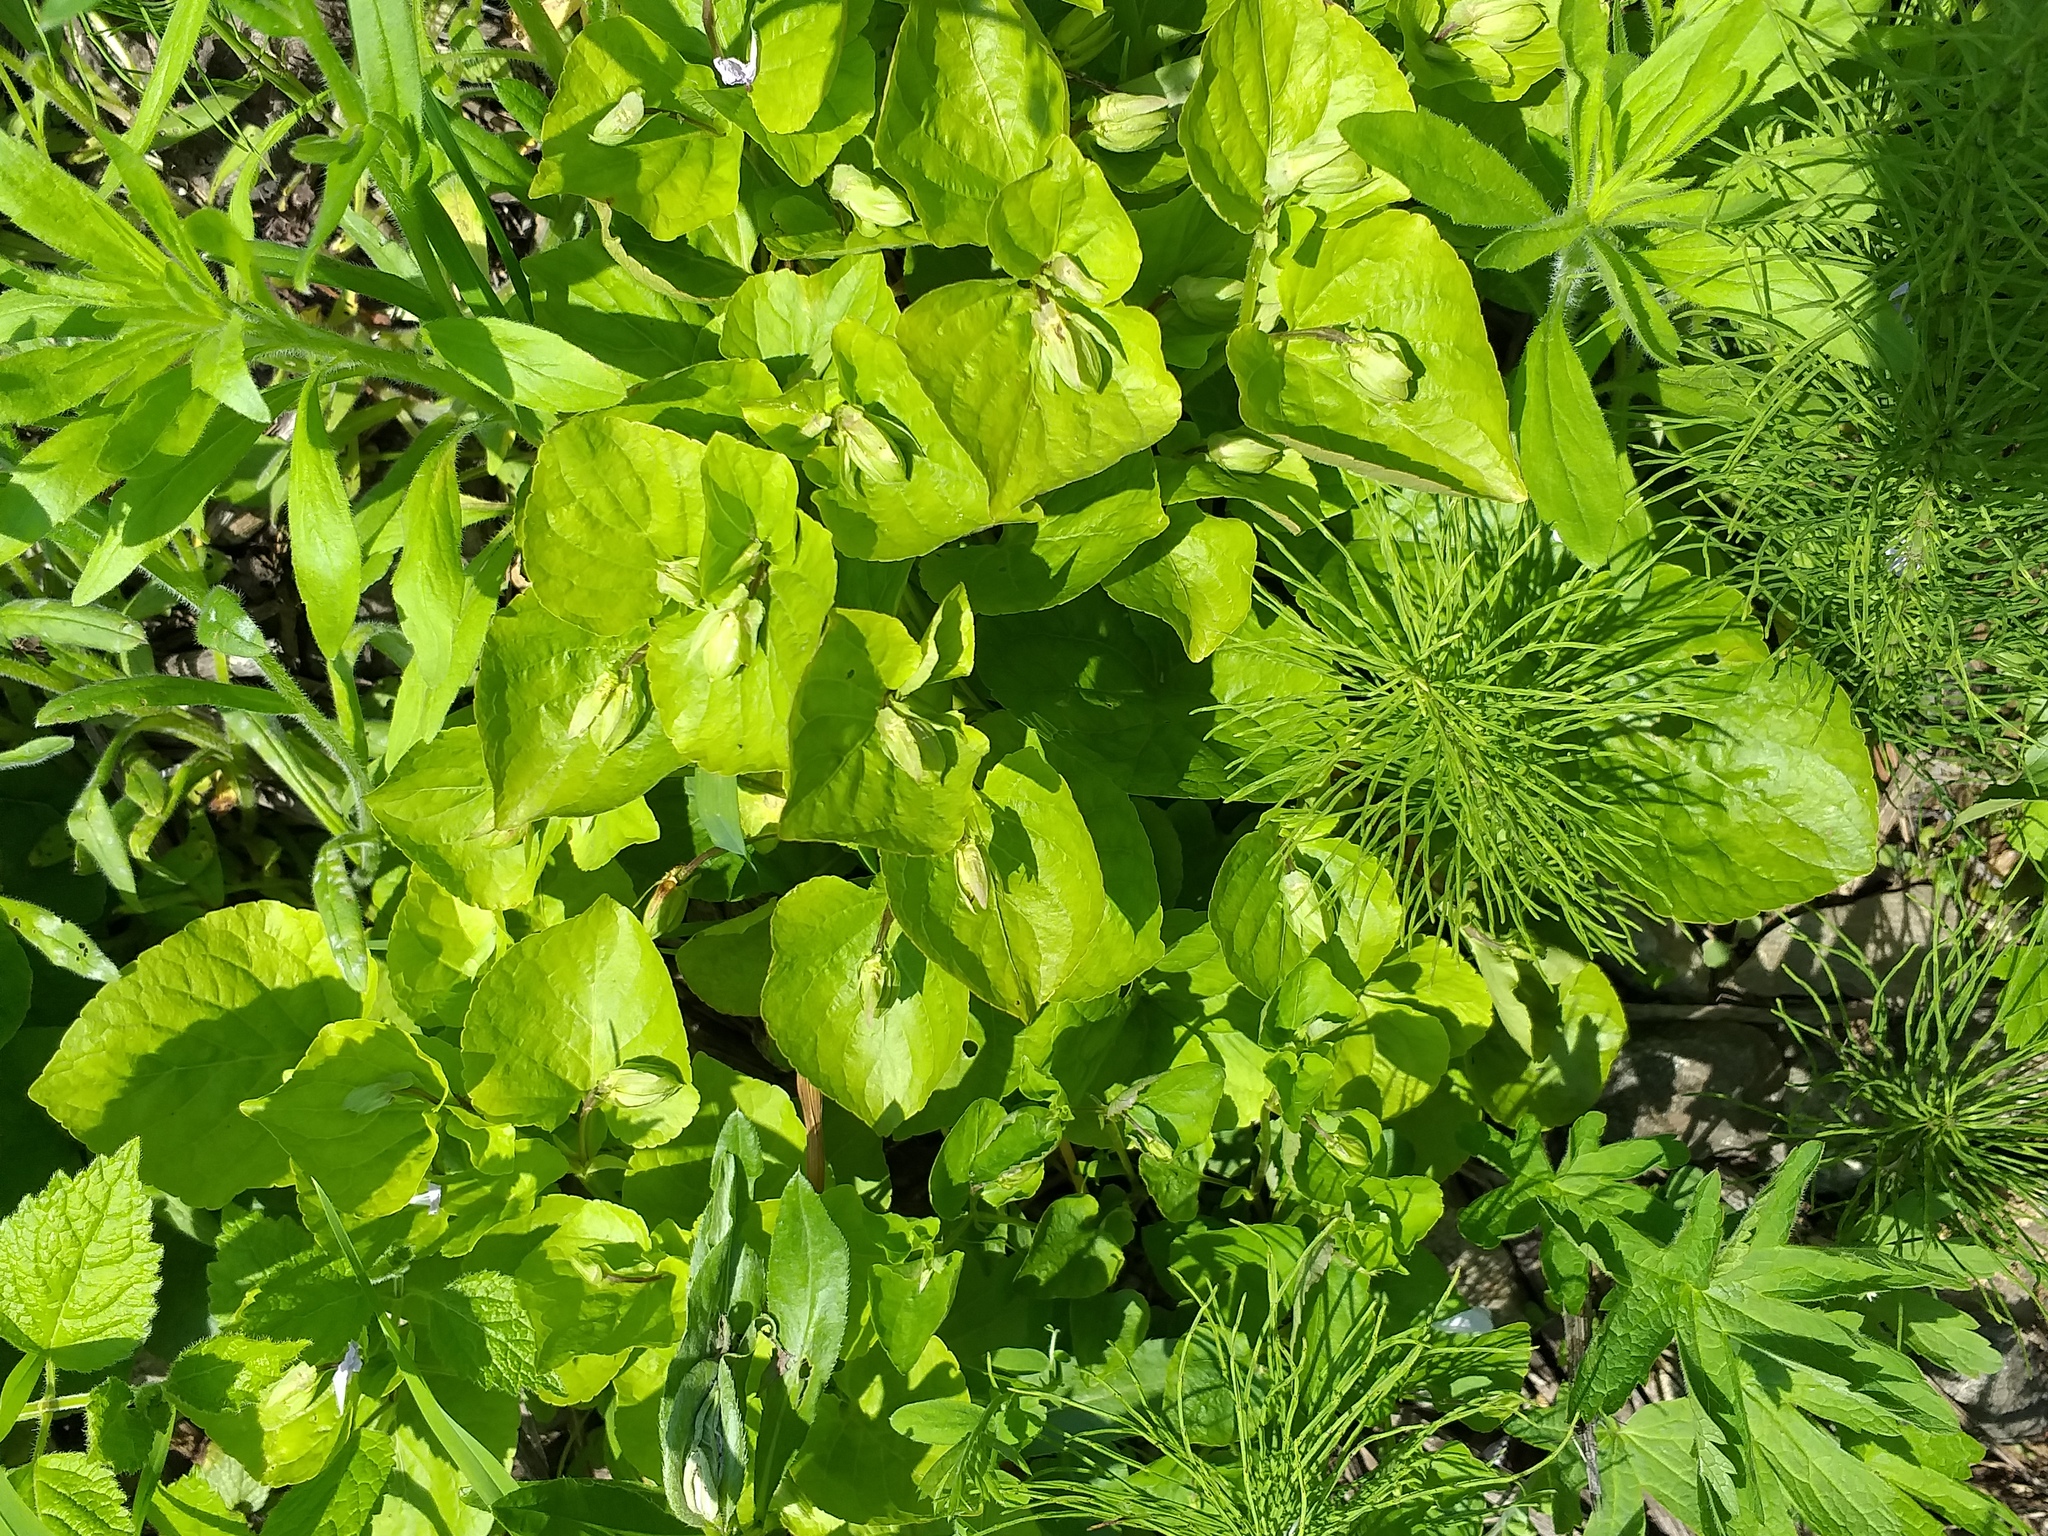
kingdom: Plantae
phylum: Tracheophyta
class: Magnoliopsida
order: Malpighiales
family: Violaceae
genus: Viola
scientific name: Viola mirabilis
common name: Wonder violet
